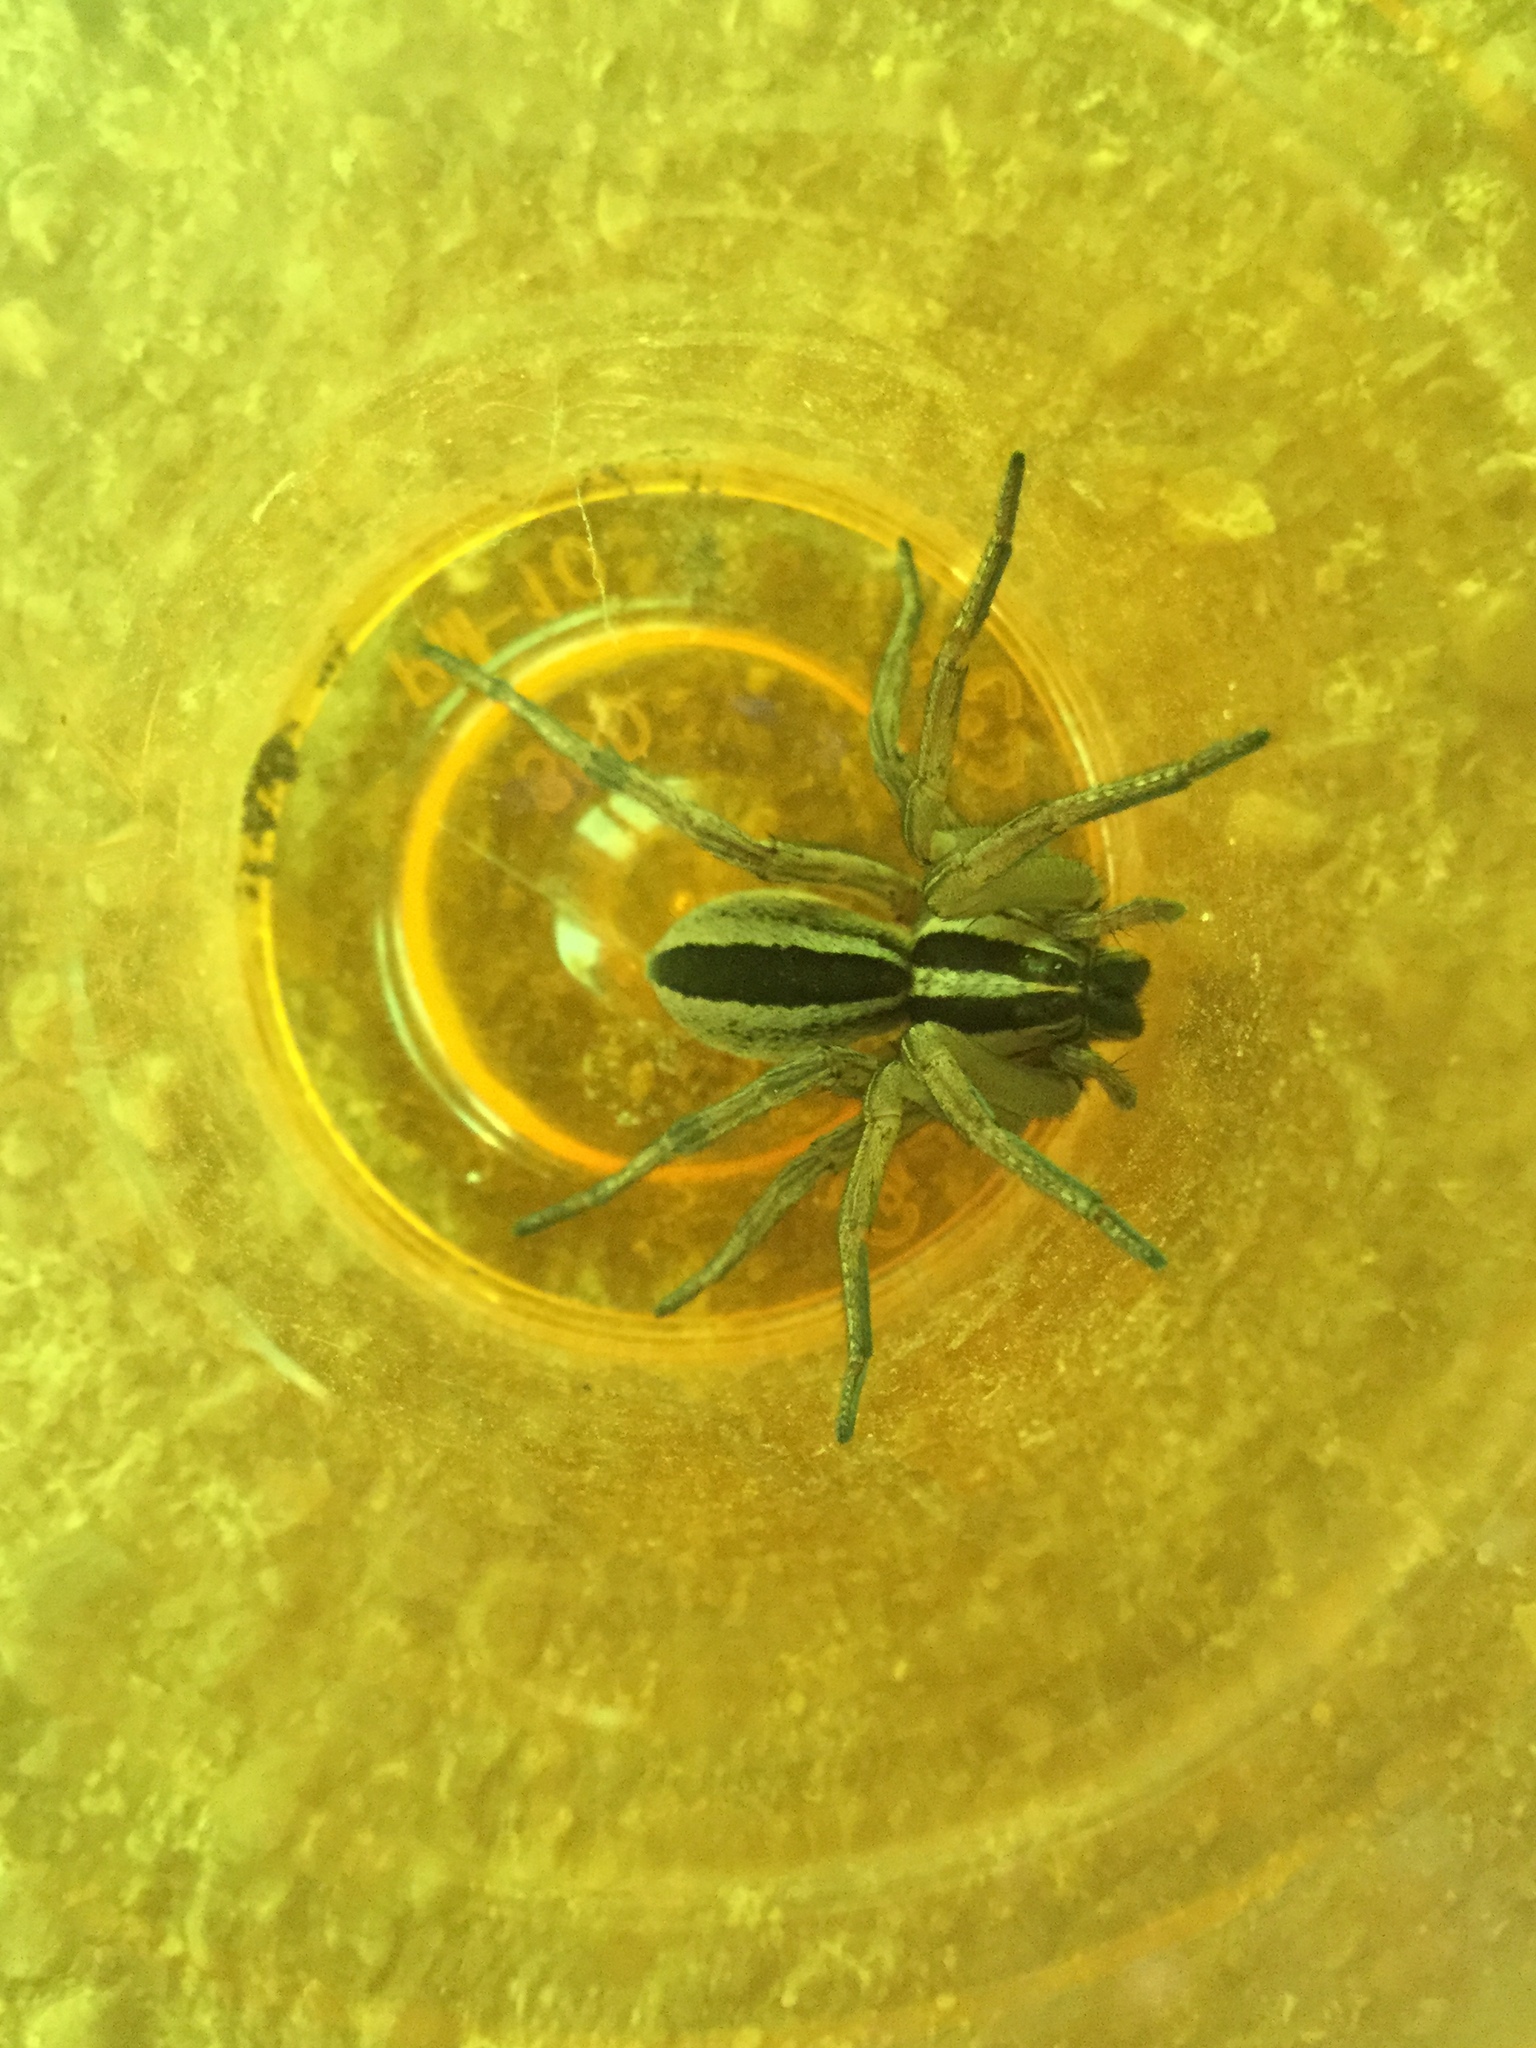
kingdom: Animalia
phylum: Arthropoda
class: Arachnida
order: Araneae
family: Lycosidae
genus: Rabidosa
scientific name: Rabidosa punctulata
